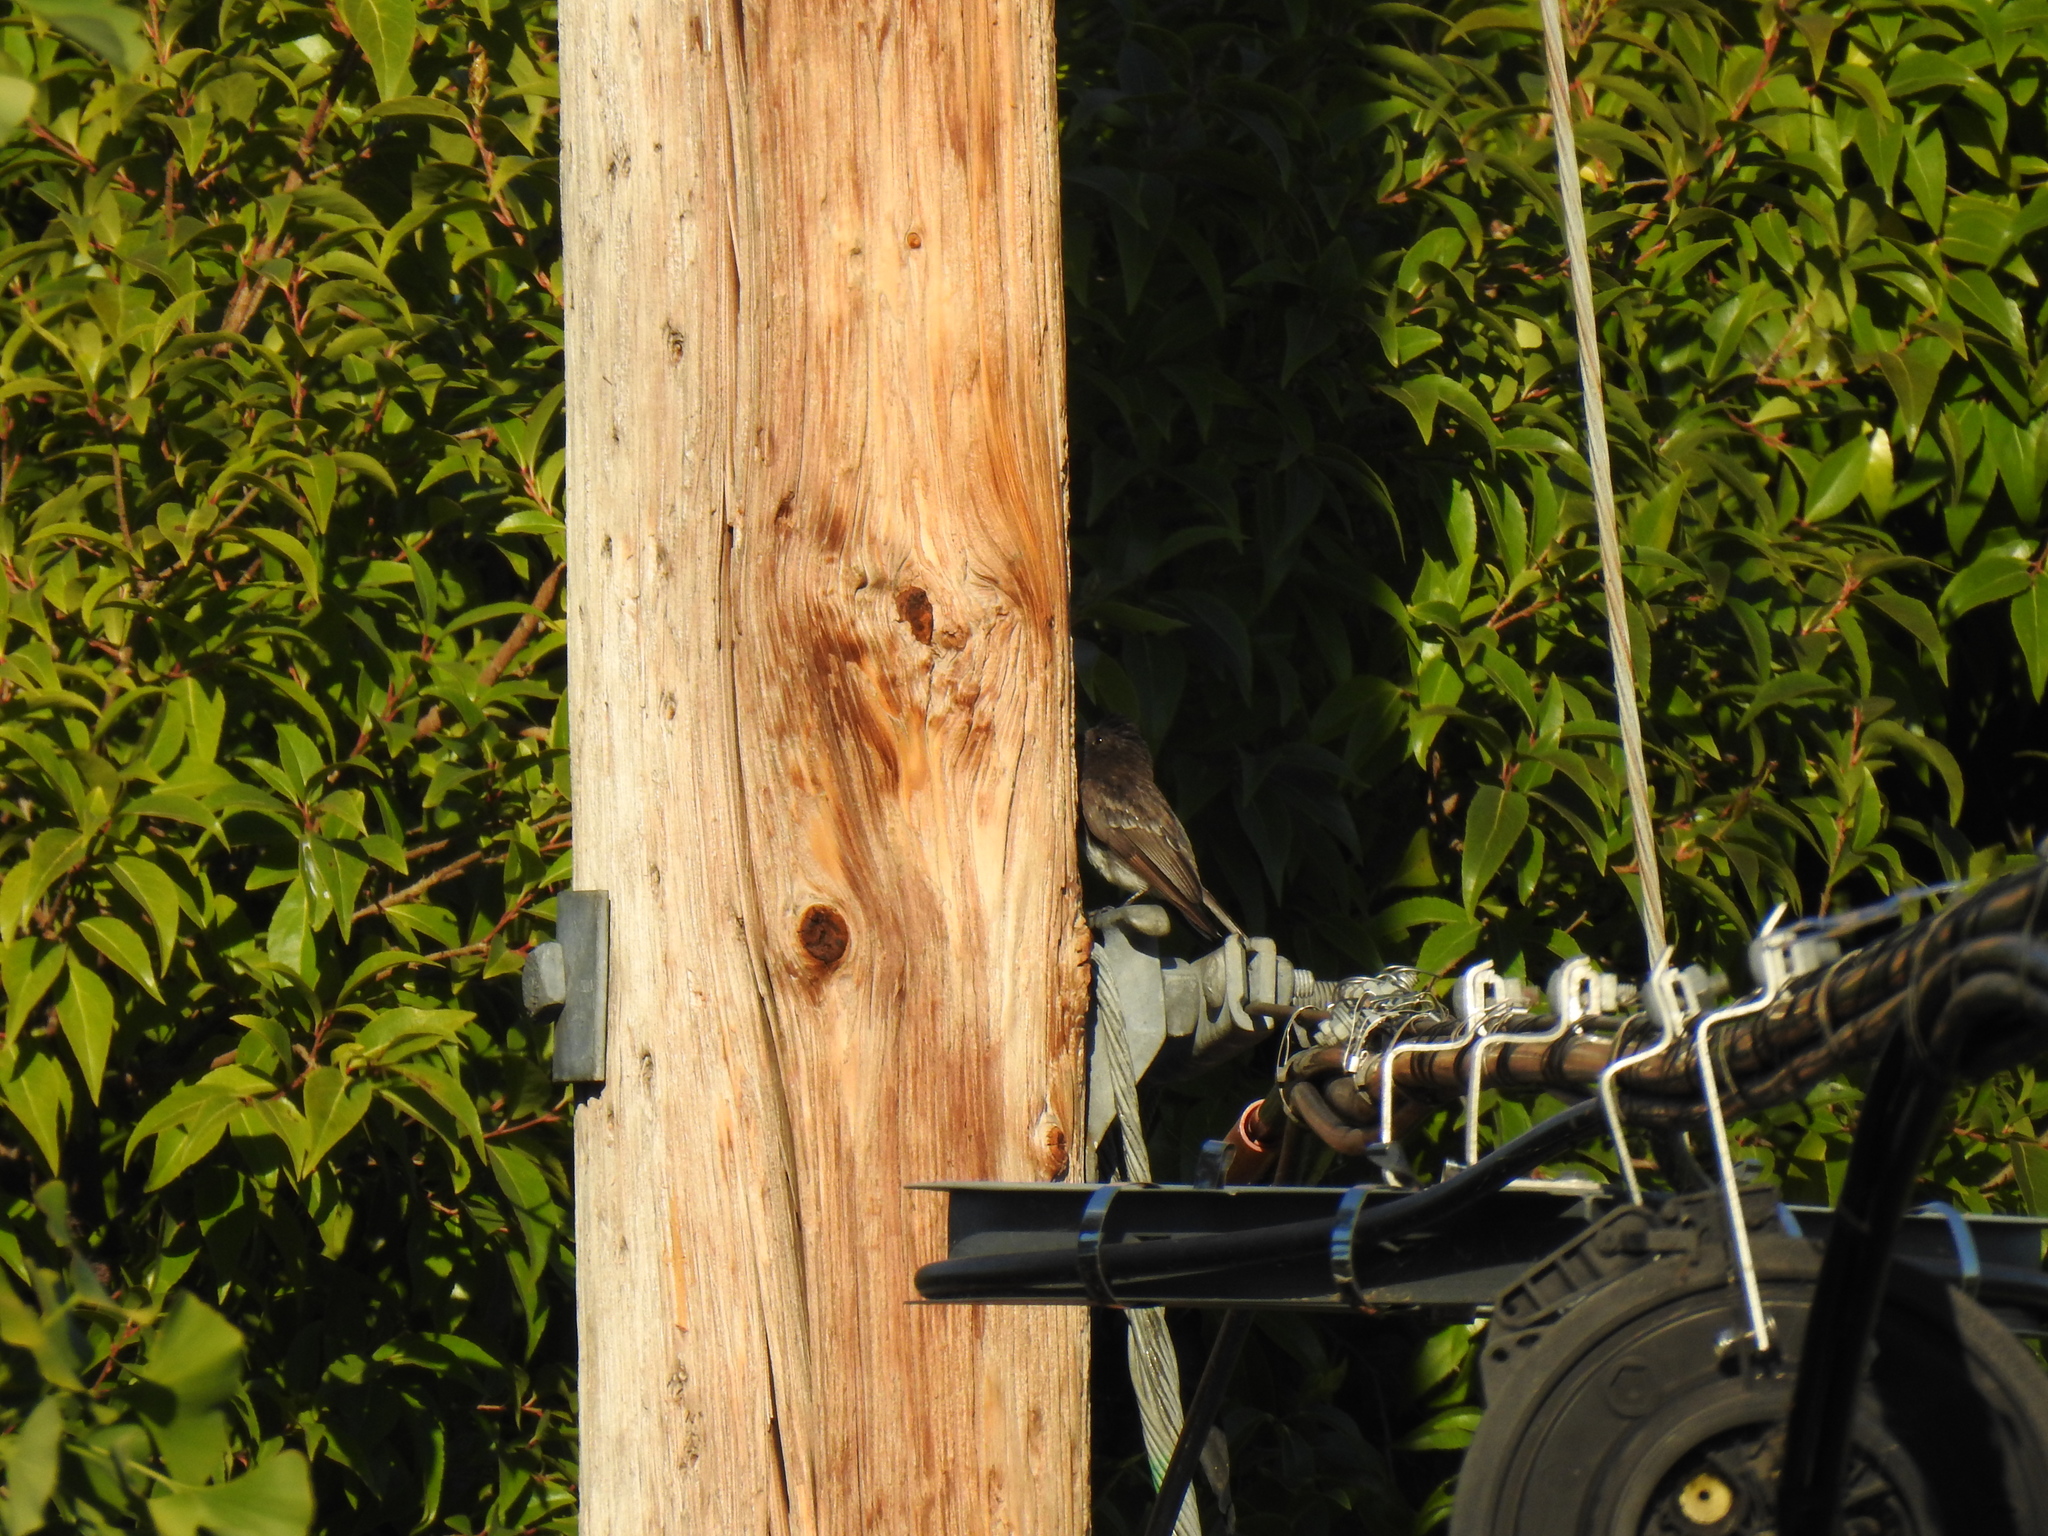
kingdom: Animalia
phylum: Chordata
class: Aves
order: Passeriformes
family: Tyrannidae
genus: Sayornis
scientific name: Sayornis nigricans
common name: Black phoebe
